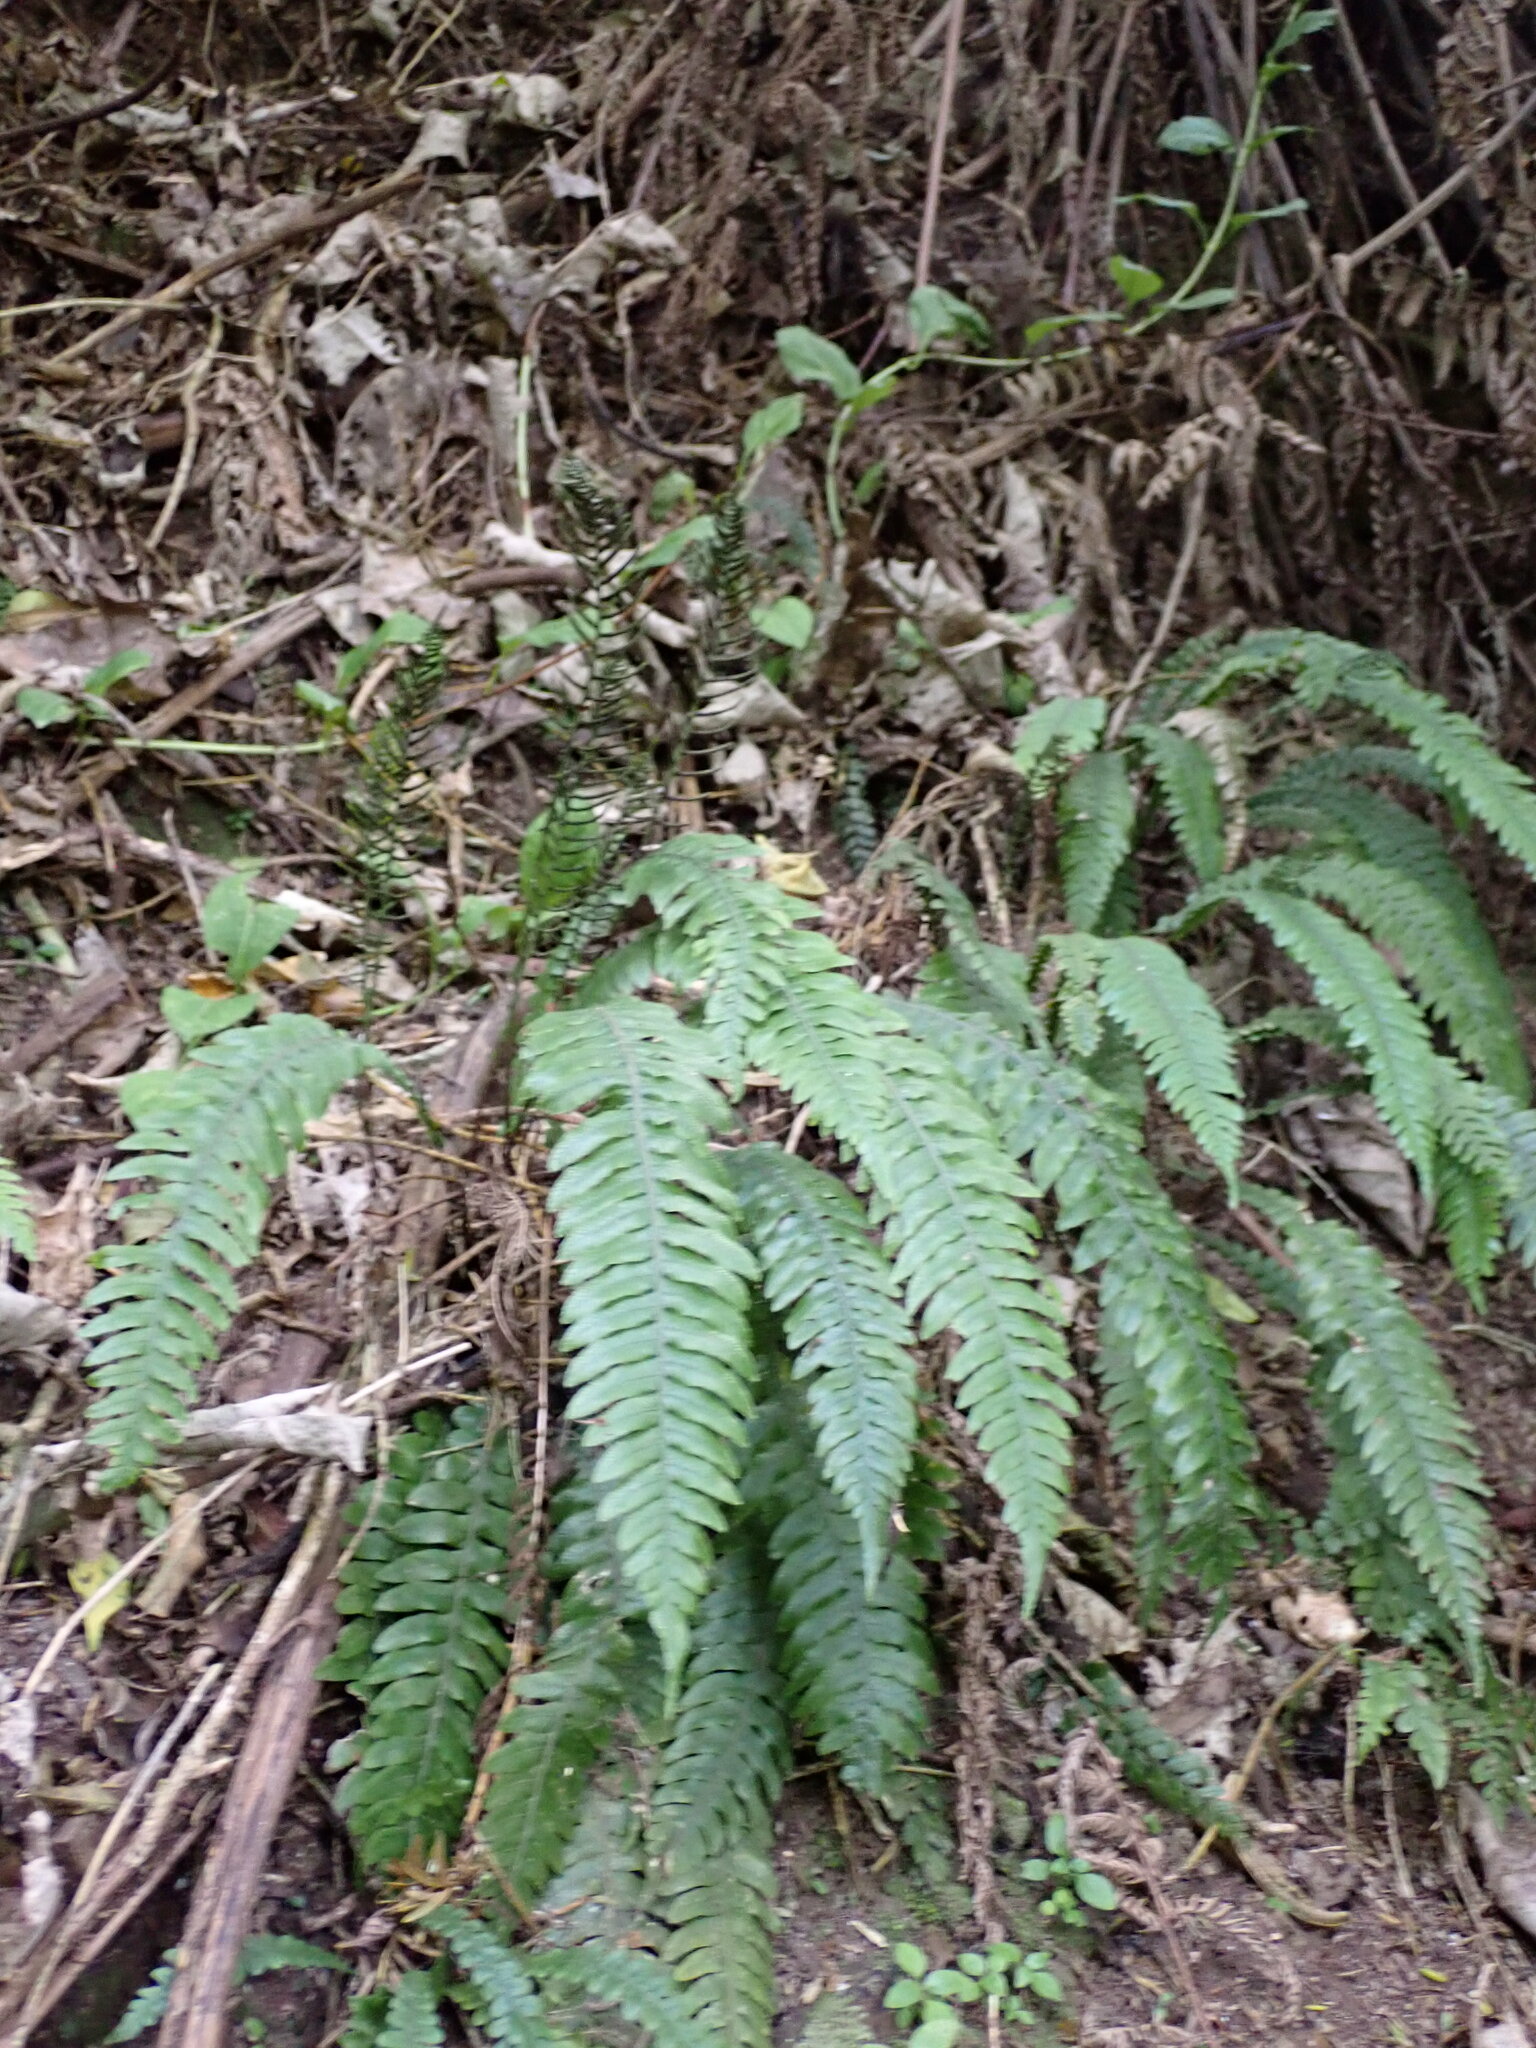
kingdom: Plantae
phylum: Tracheophyta
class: Polypodiopsida
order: Polypodiales
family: Blechnaceae
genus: Austroblechnum
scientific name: Austroblechnum lanceolatum
